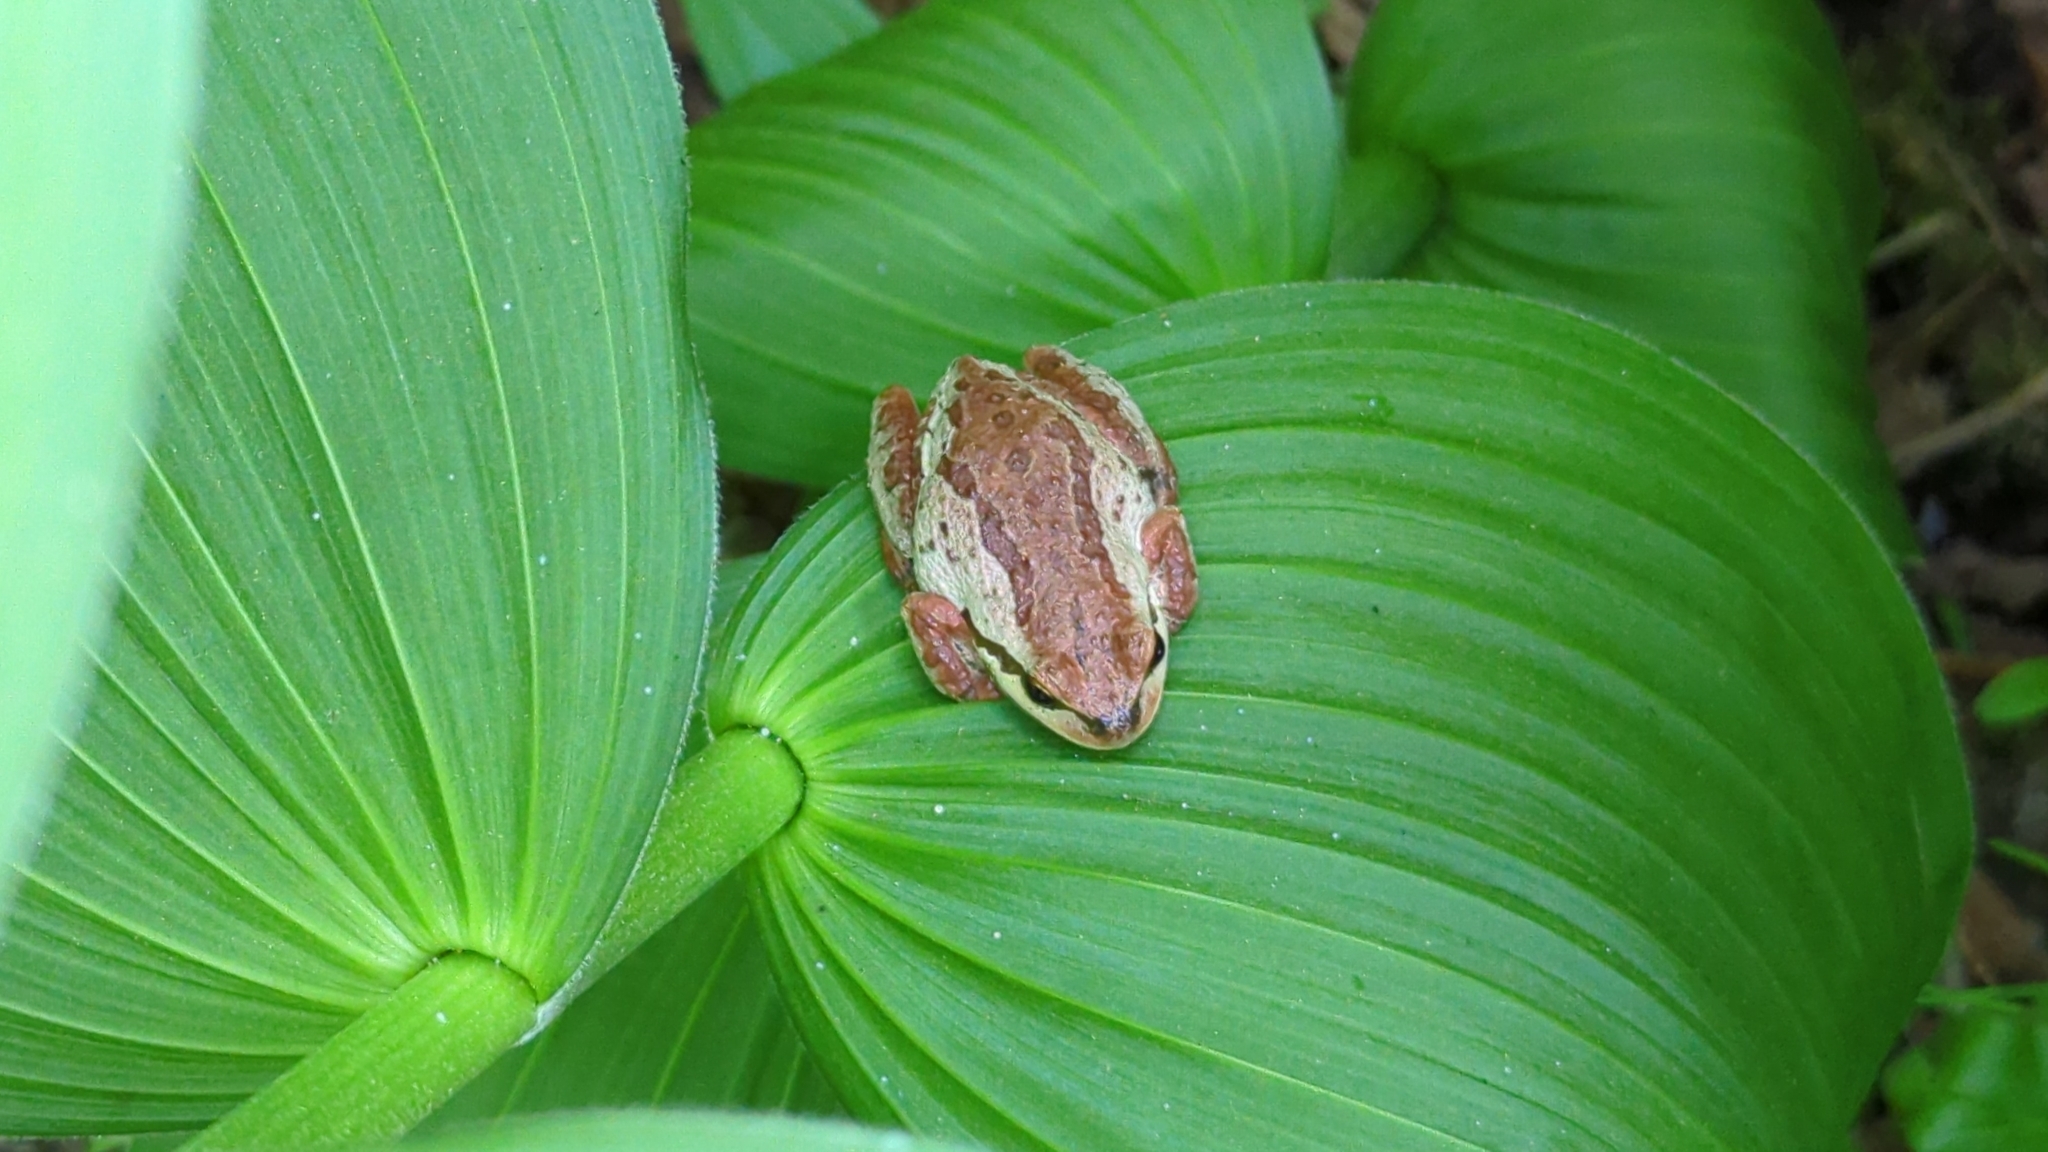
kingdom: Animalia
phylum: Chordata
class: Amphibia
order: Anura
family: Hylidae
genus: Pseudacris
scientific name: Pseudacris regilla
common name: Pacific chorus frog
